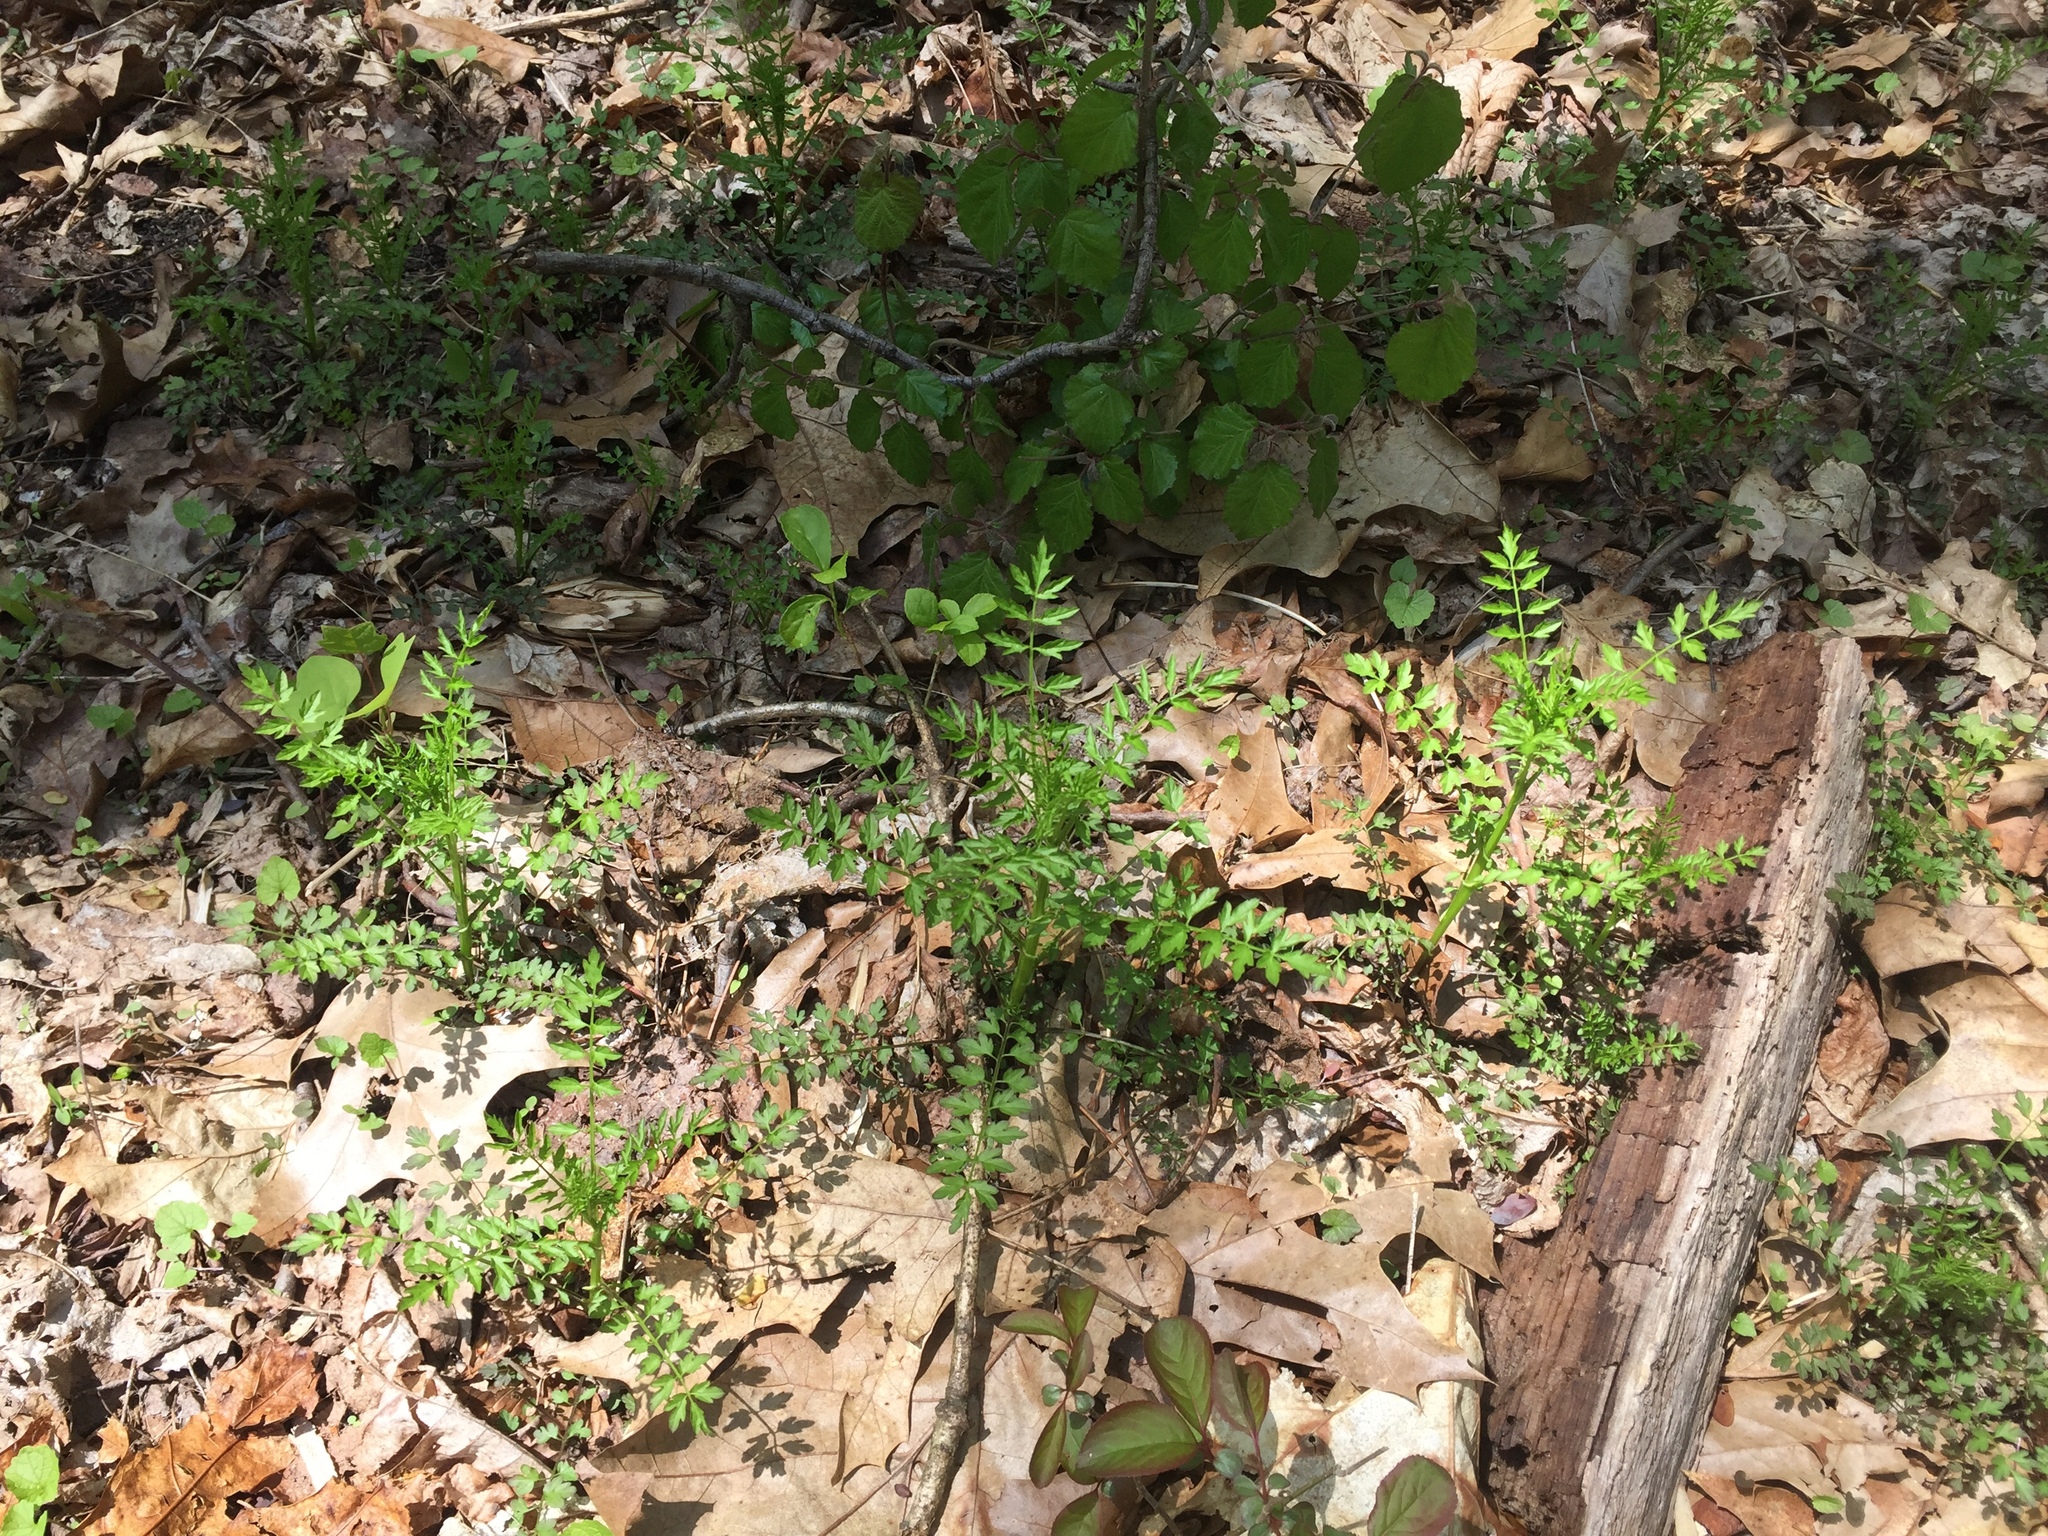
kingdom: Plantae
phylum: Tracheophyta
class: Magnoliopsida
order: Brassicales
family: Brassicaceae
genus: Cardamine
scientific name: Cardamine impatiens
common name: Narrow-leaved bitter-cress
